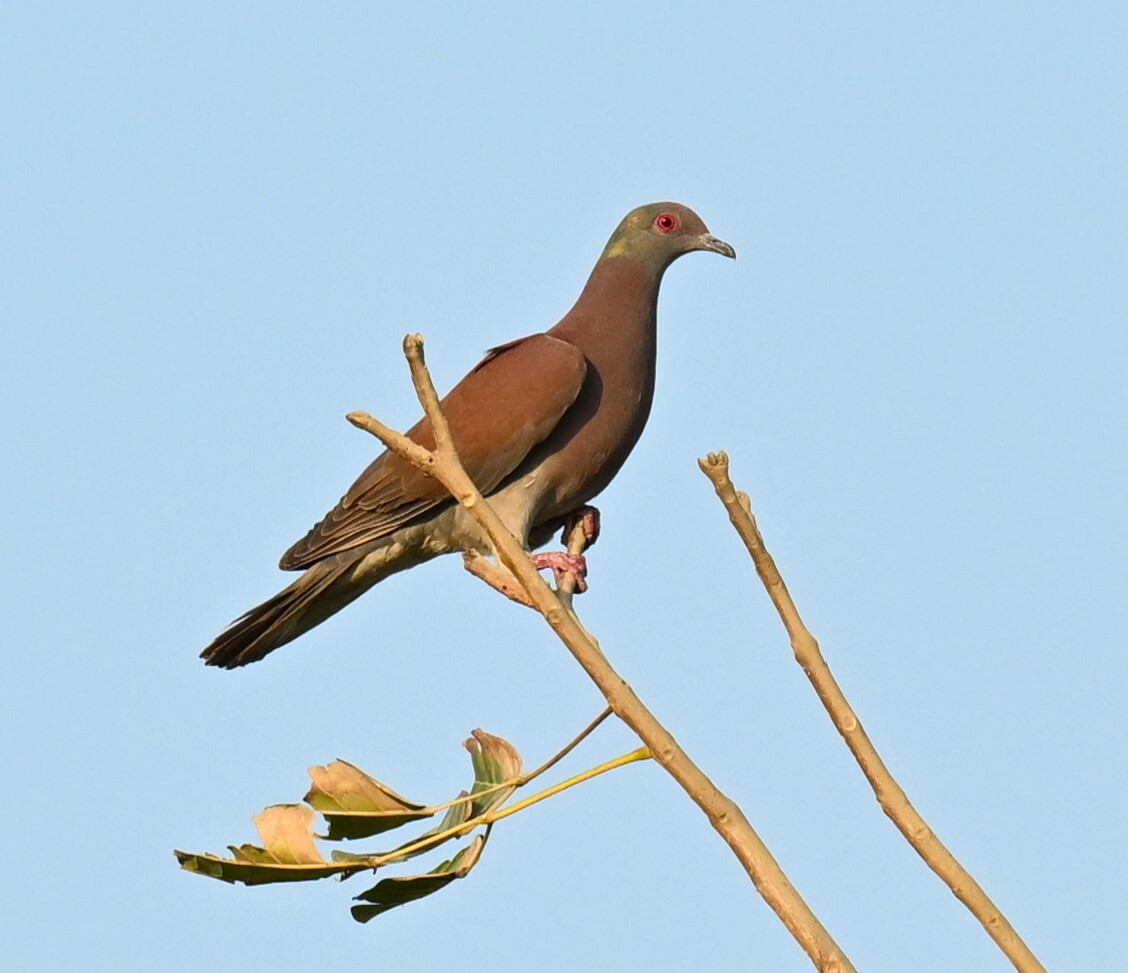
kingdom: Animalia
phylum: Chordata
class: Aves
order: Columbiformes
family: Columbidae
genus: Patagioenas
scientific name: Patagioenas cayennensis
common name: Pale-vented pigeon
